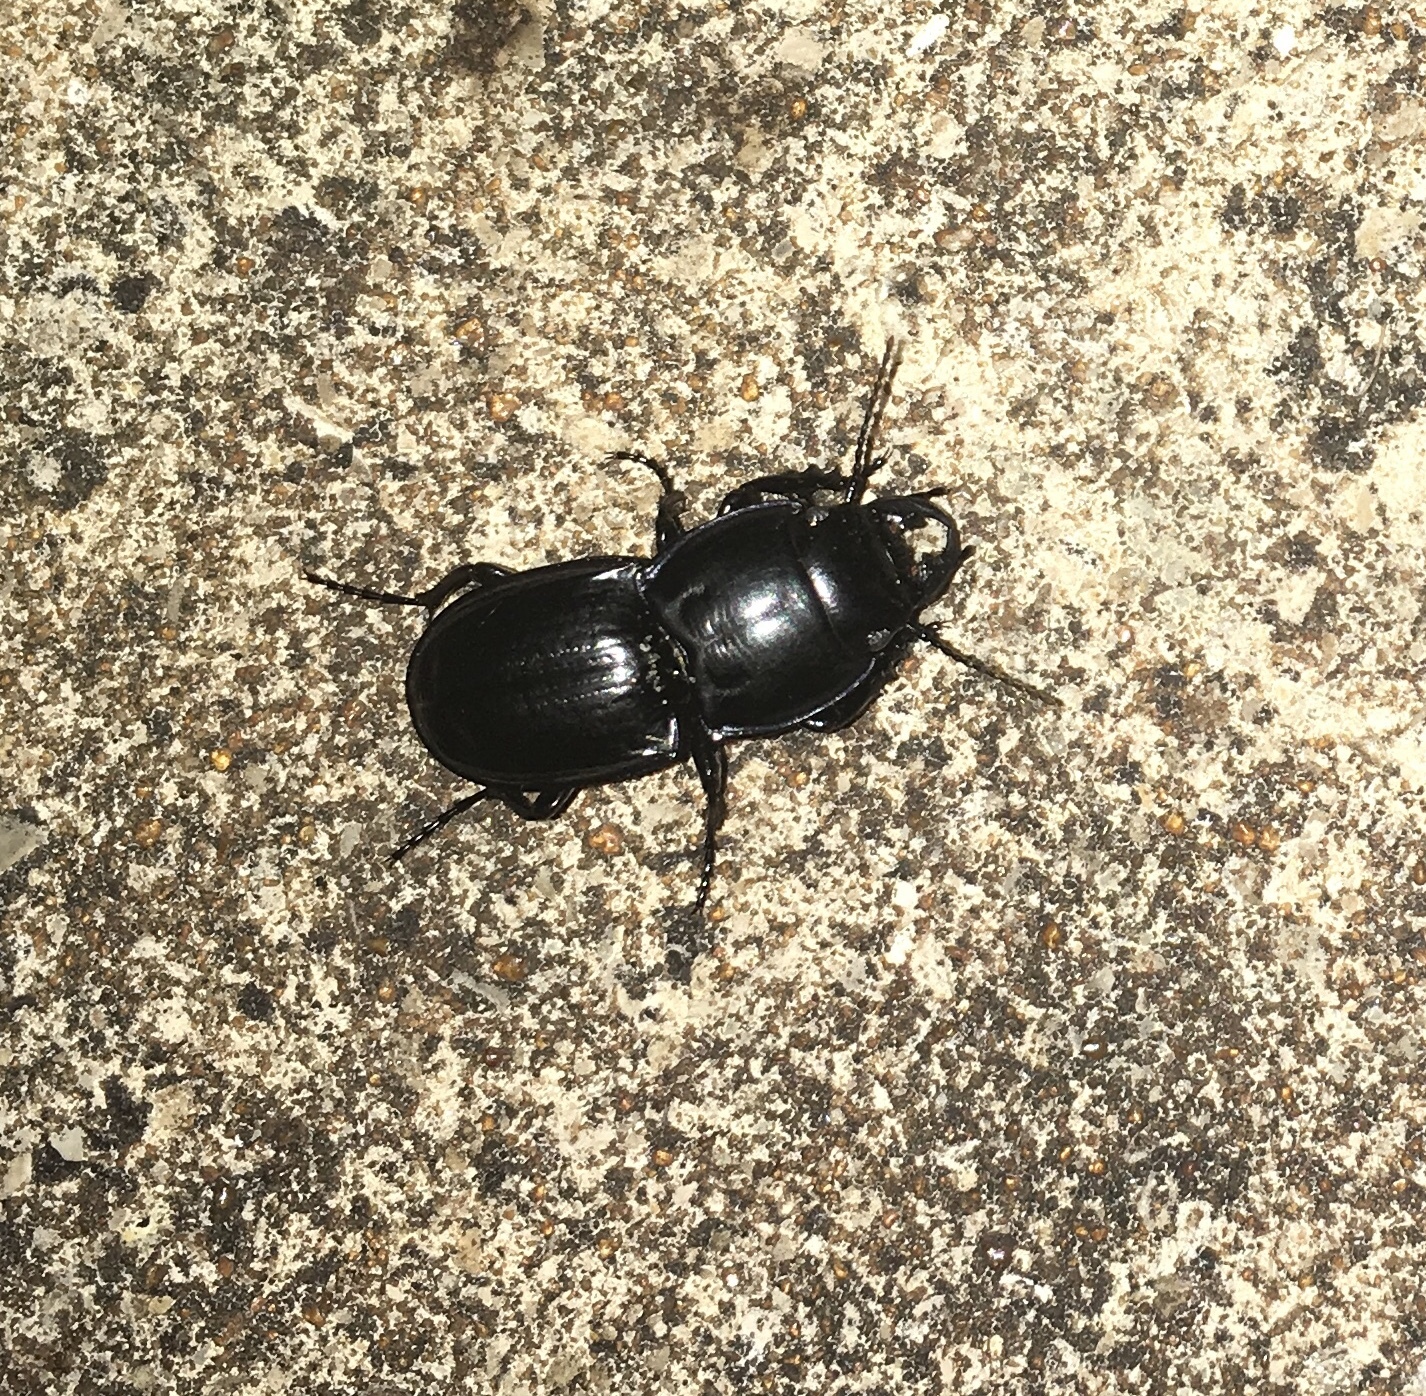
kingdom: Animalia
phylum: Arthropoda
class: Insecta
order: Coleoptera
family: Carabidae
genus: Pasimachus
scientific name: Pasimachus sublaevis
